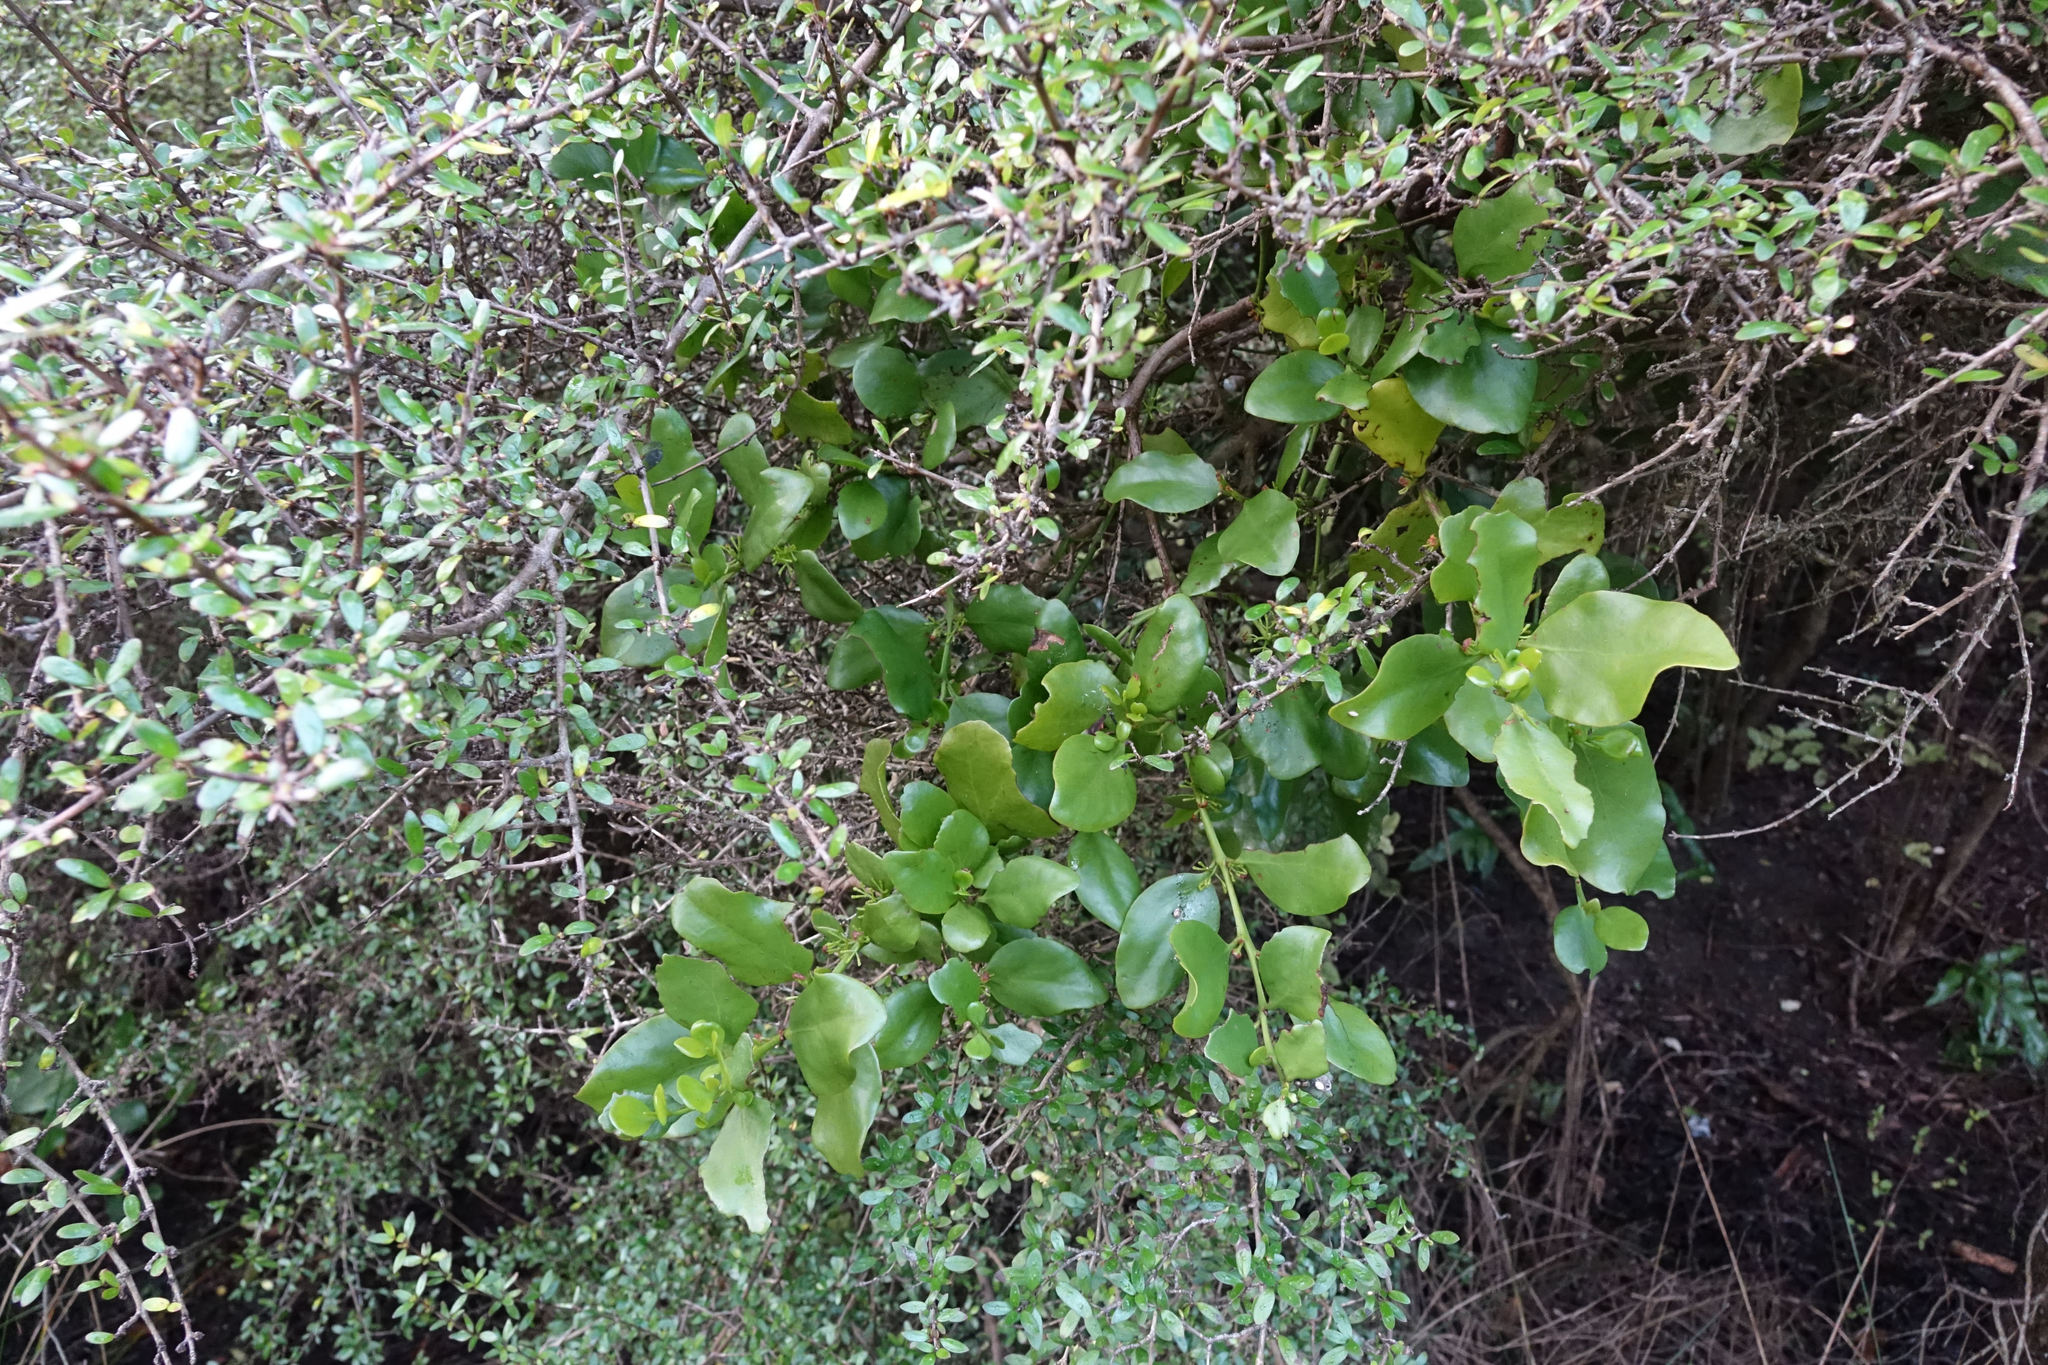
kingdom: Plantae
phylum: Tracheophyta
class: Magnoliopsida
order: Santalales
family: Loranthaceae
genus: Ileostylus
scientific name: Ileostylus micranthus
